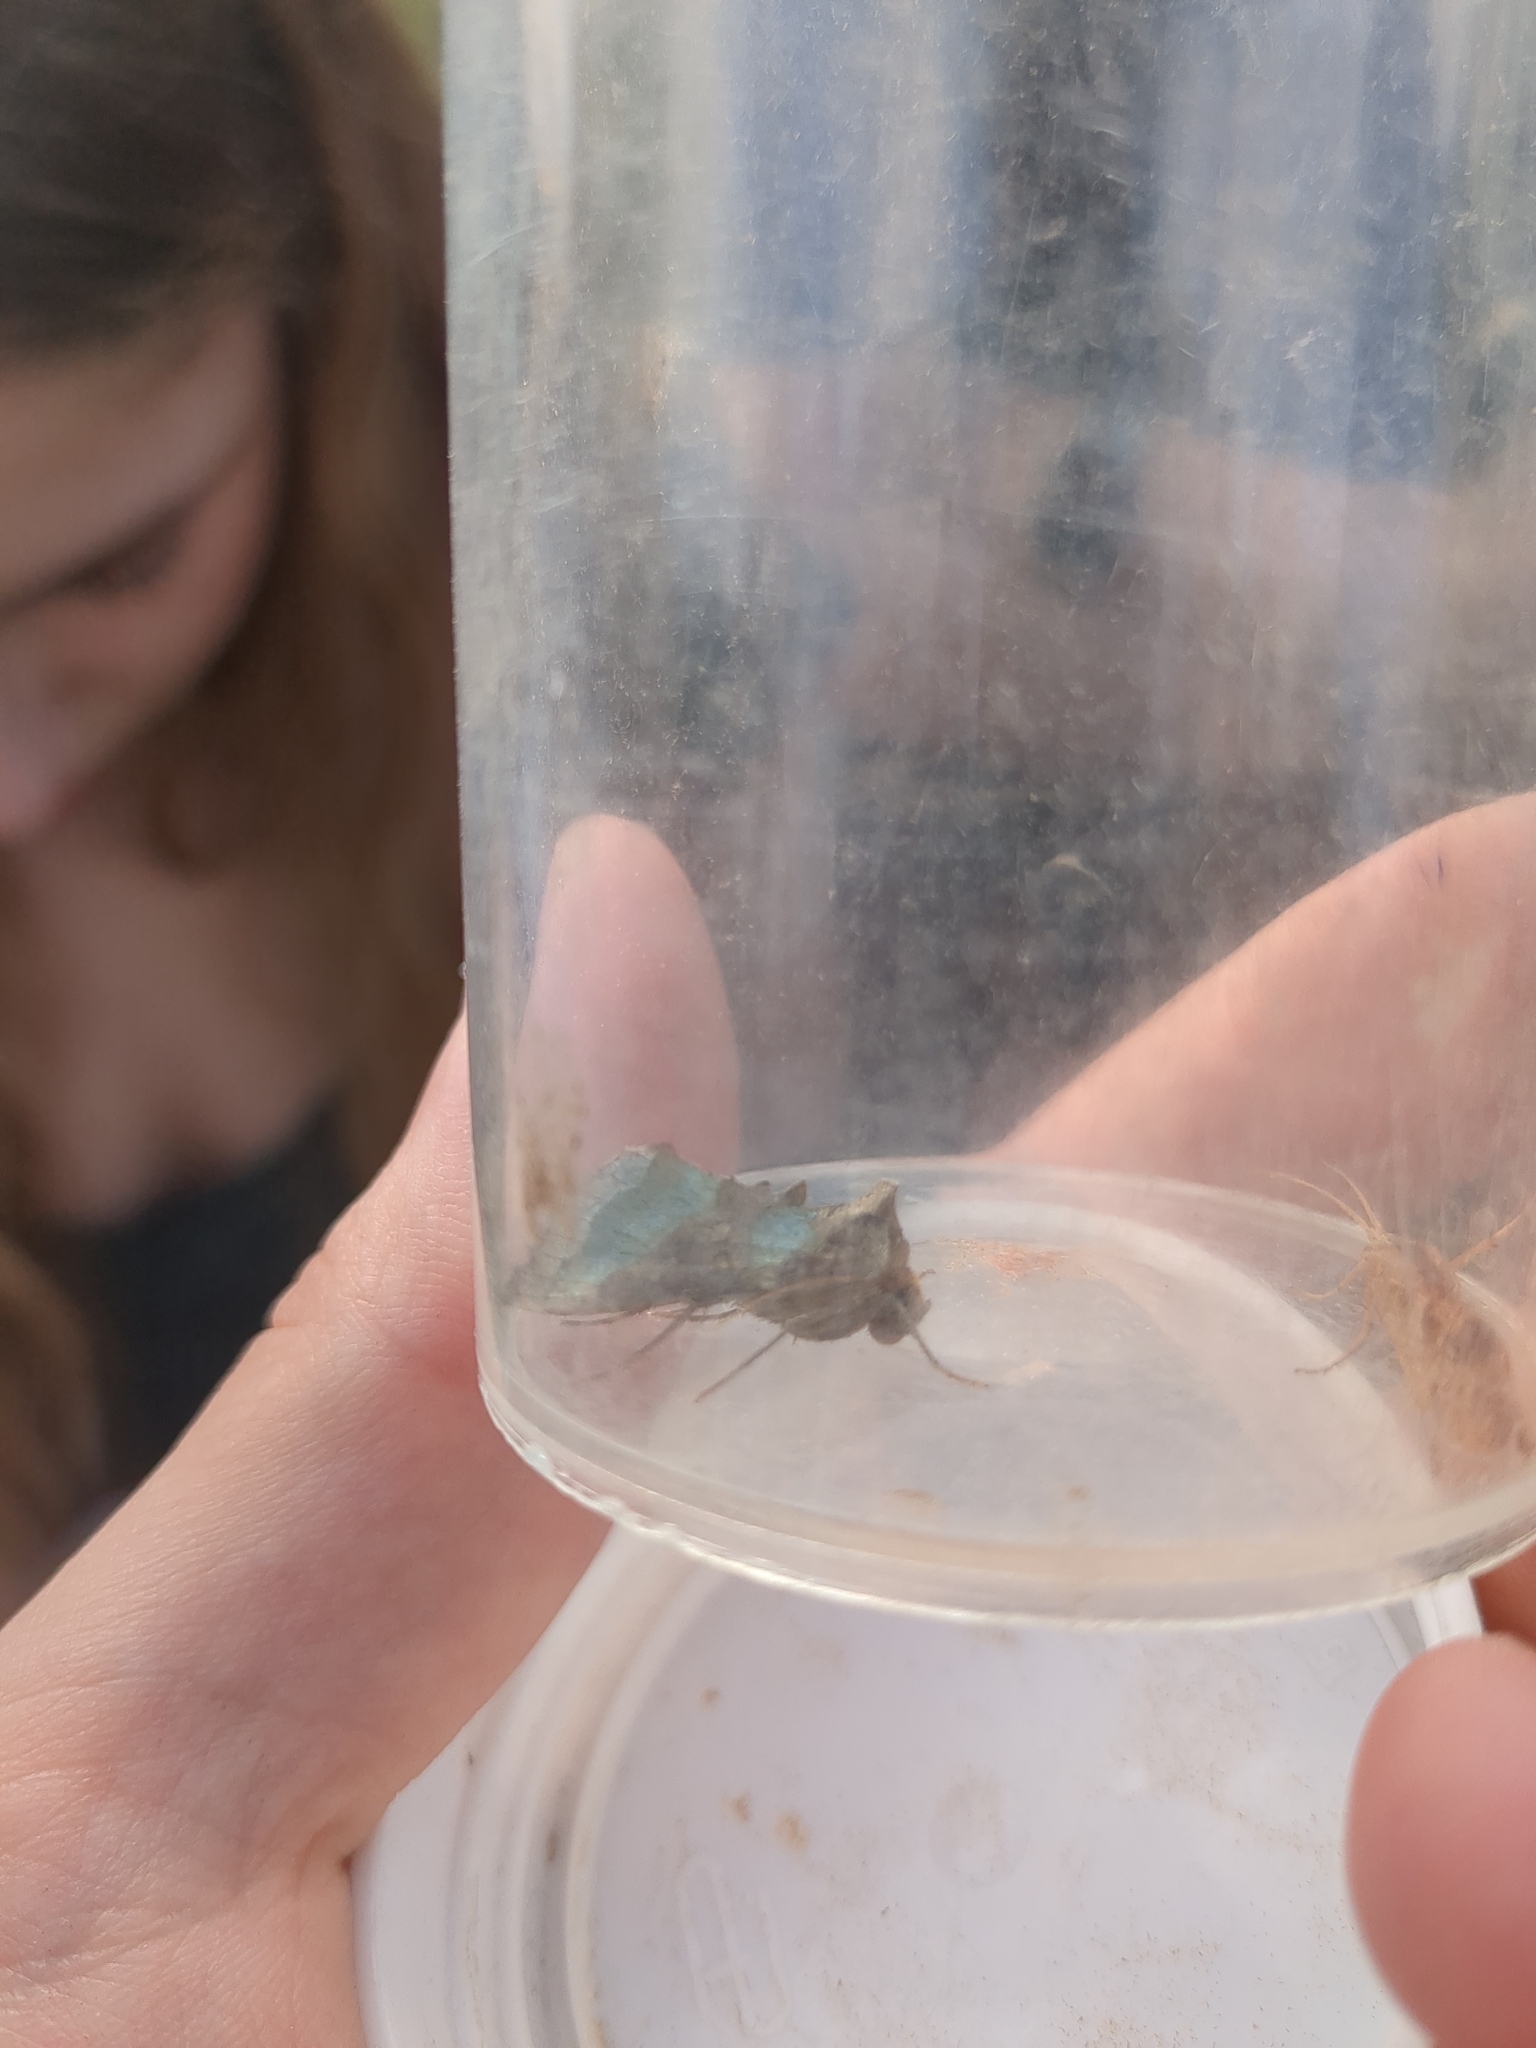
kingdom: Animalia
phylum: Arthropoda
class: Insecta
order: Lepidoptera
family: Noctuidae
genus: Diachrysia
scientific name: Diachrysia chrysitis
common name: Burnished brass
